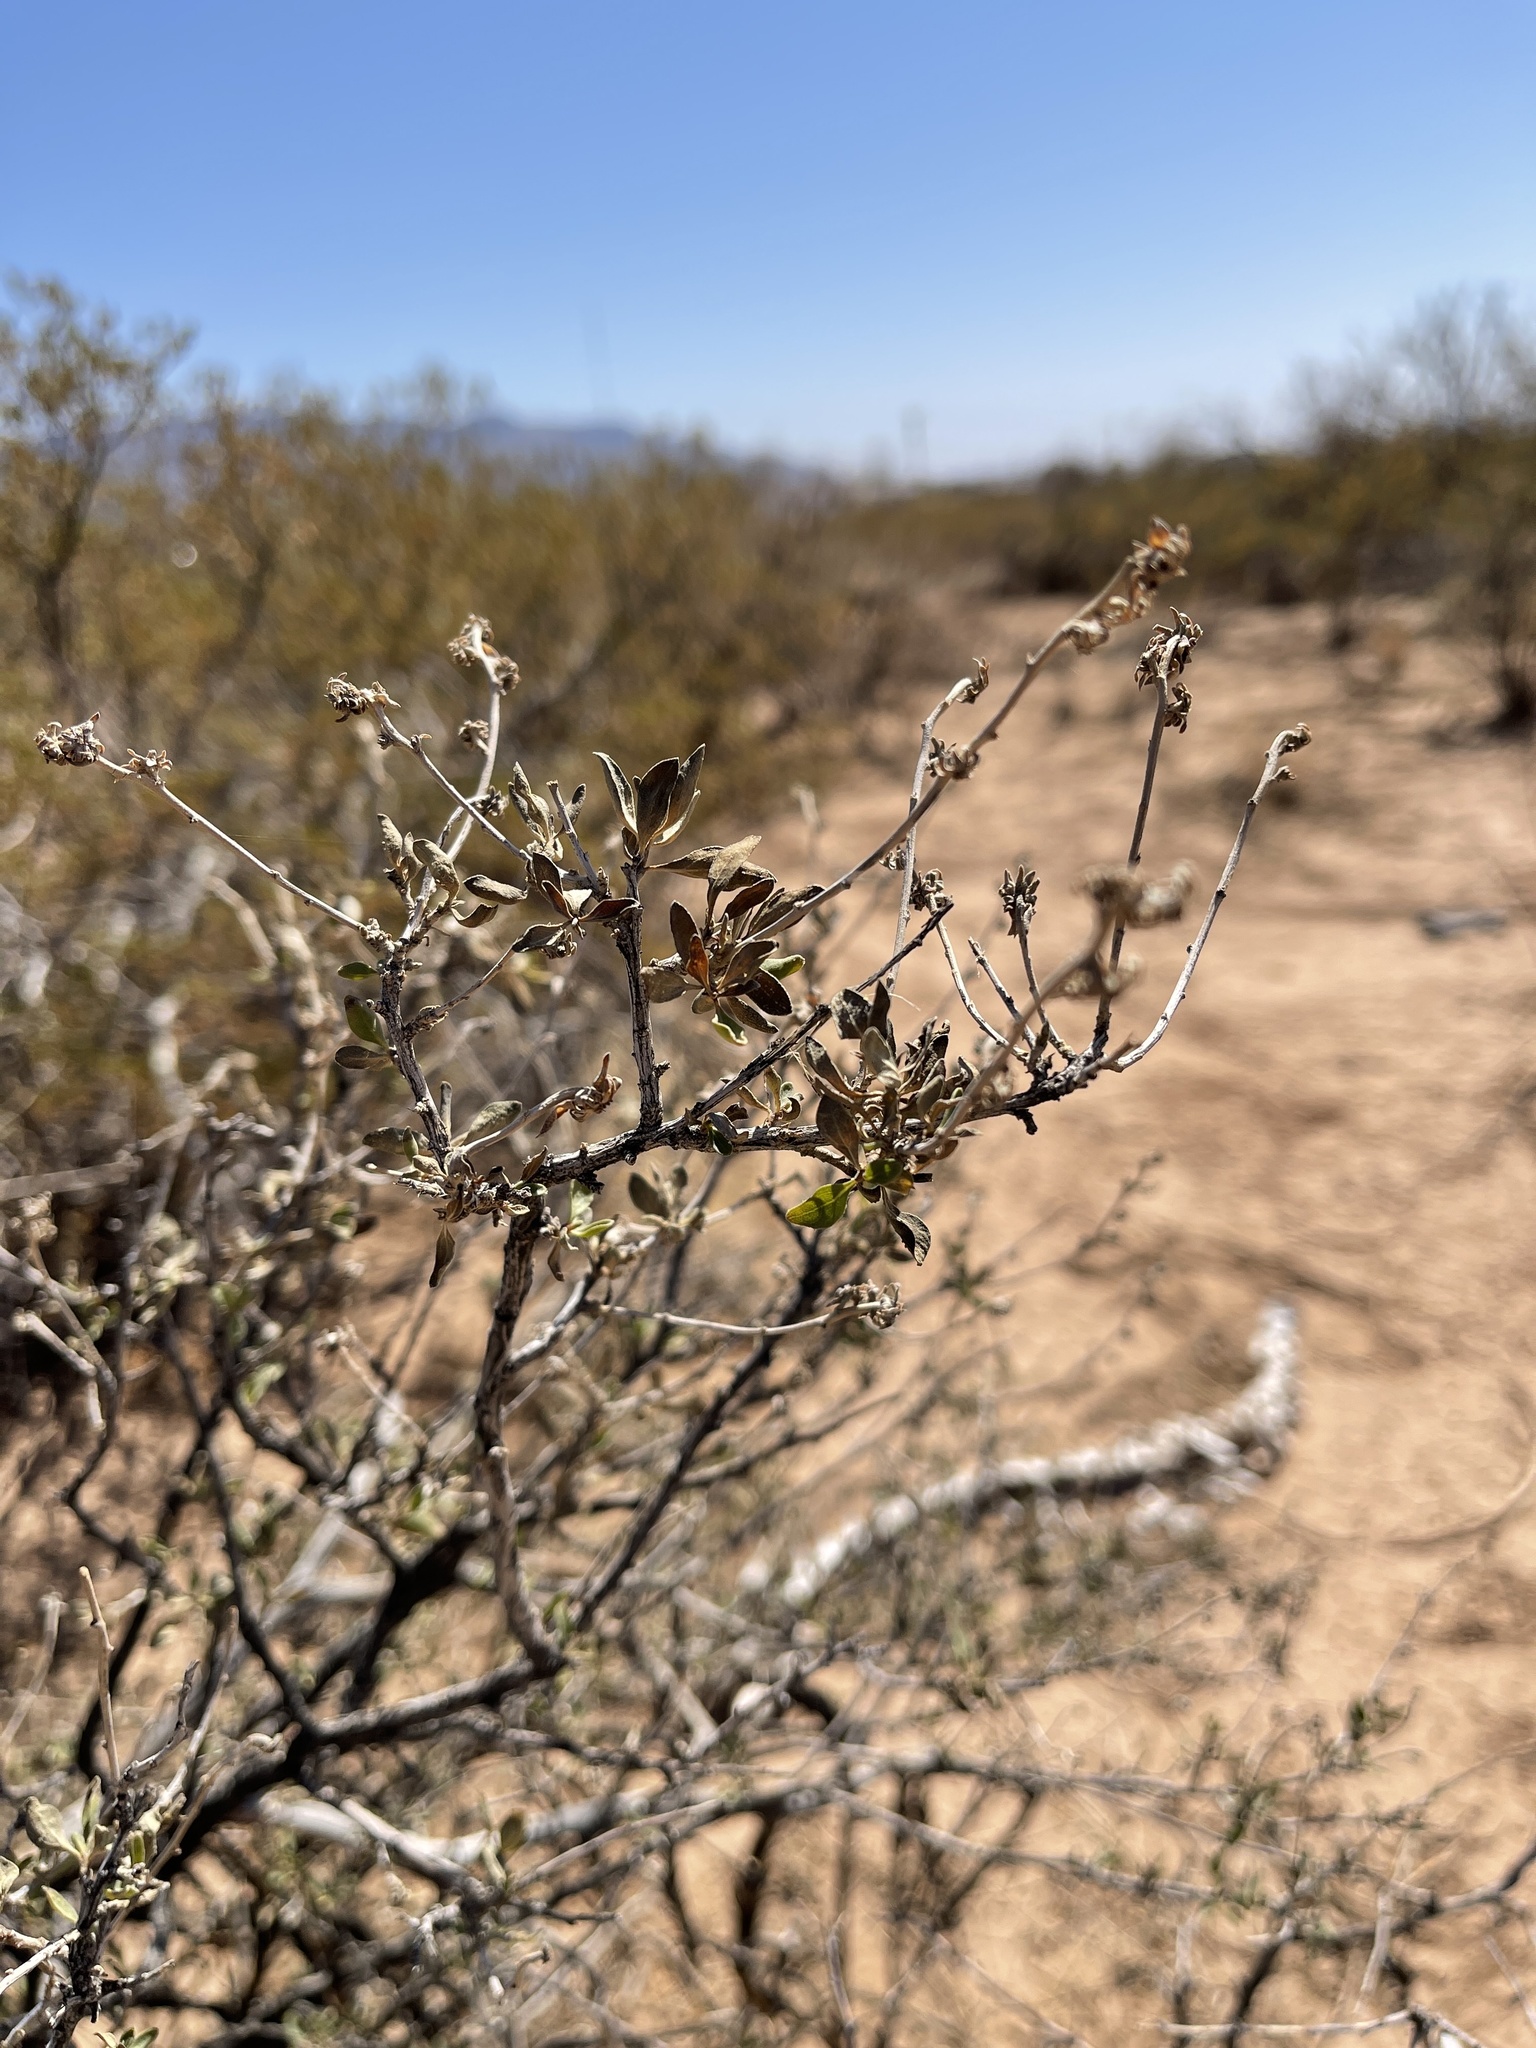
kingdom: Plantae
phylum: Tracheophyta
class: Magnoliopsida
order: Asterales
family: Asteraceae
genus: Flourensia
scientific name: Flourensia cernua
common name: Varnishbush
